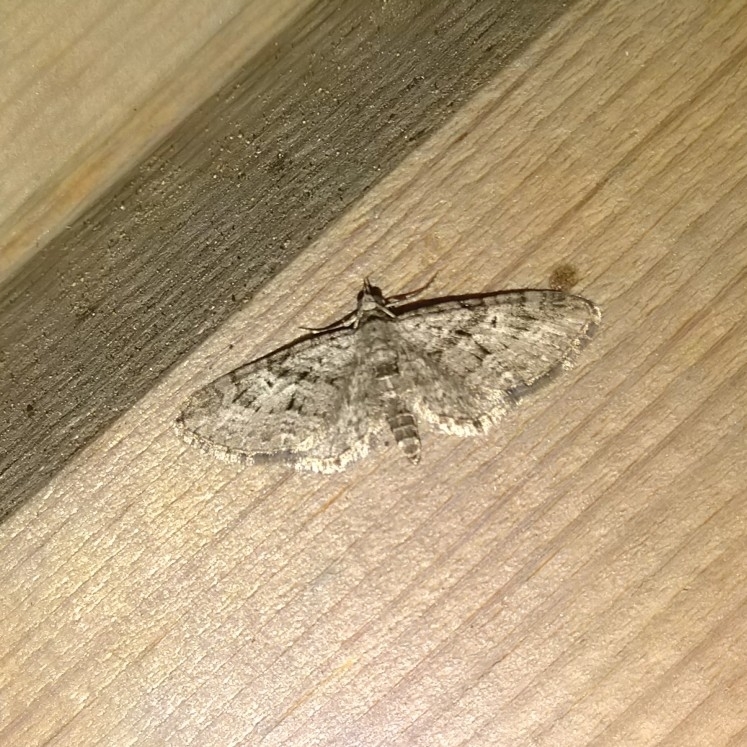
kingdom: Animalia
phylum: Arthropoda
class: Insecta
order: Lepidoptera
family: Geometridae
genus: Eupithecia
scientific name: Eupithecia pusillata
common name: Juniper pug
